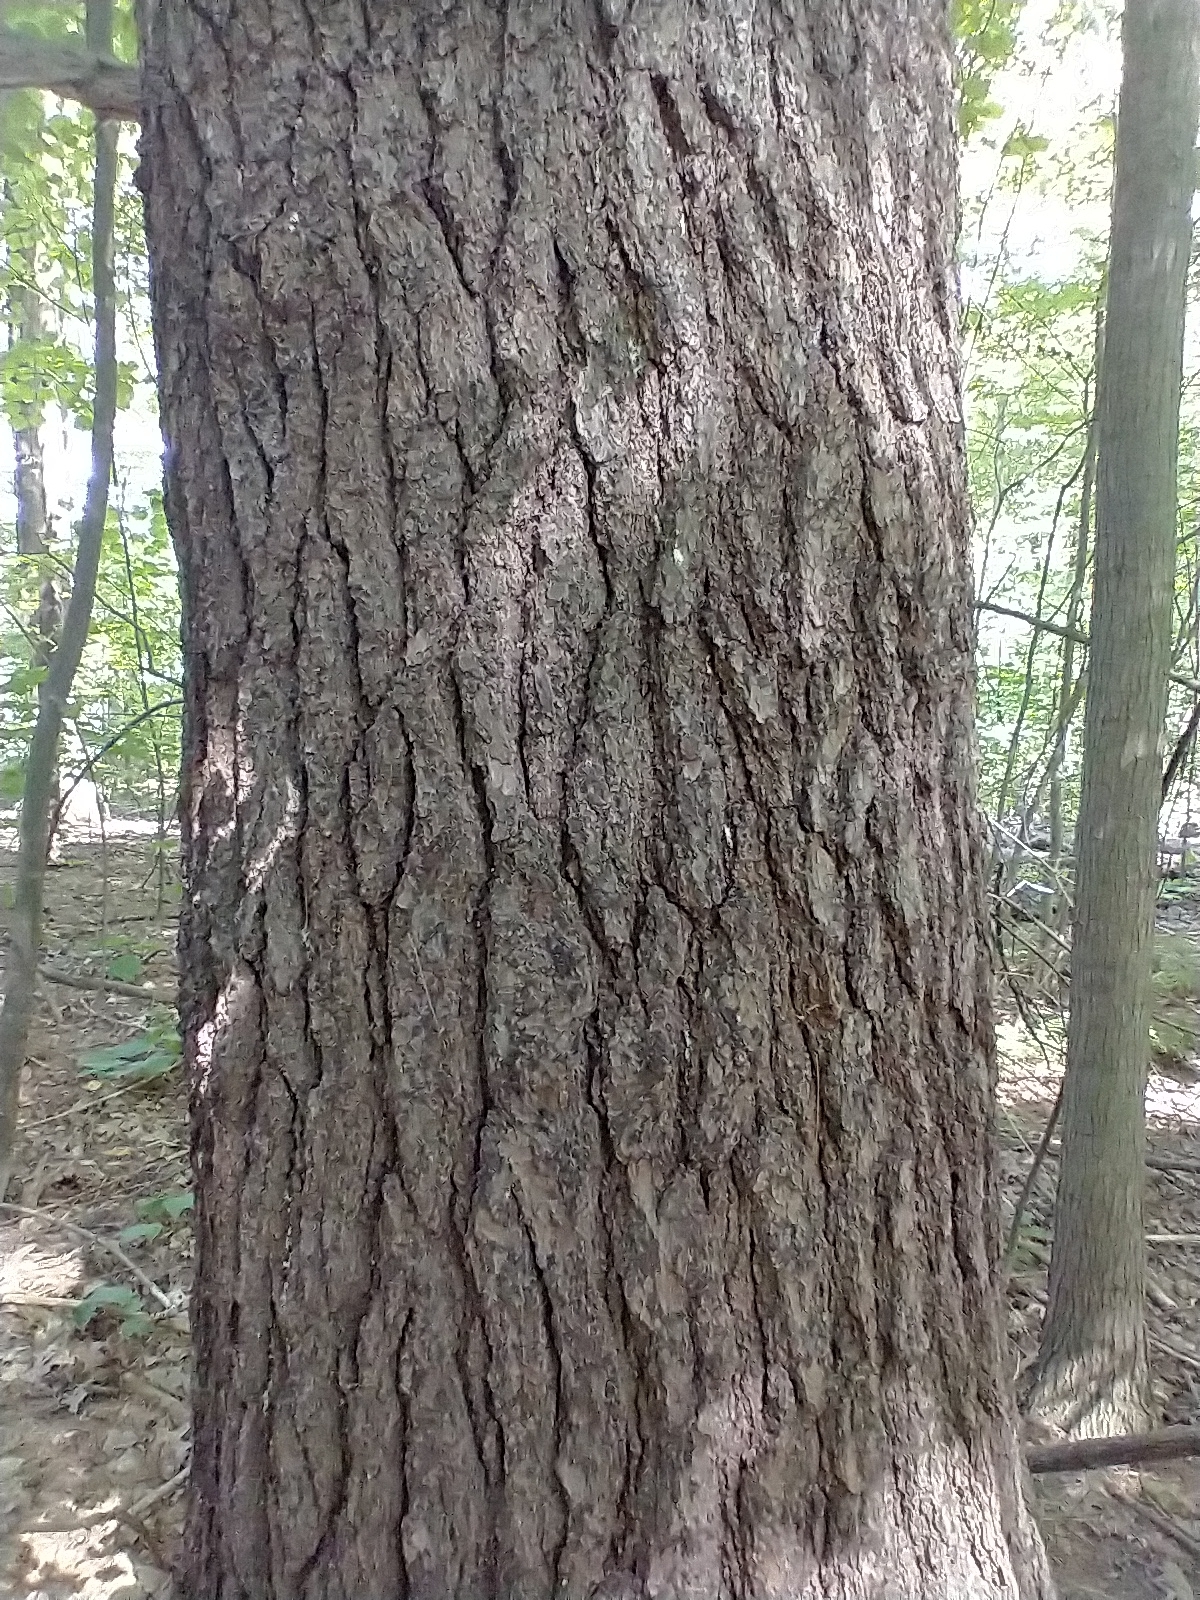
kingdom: Plantae
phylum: Tracheophyta
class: Pinopsida
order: Pinales
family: Pinaceae
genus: Pinus
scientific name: Pinus strobus
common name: Weymouth pine
